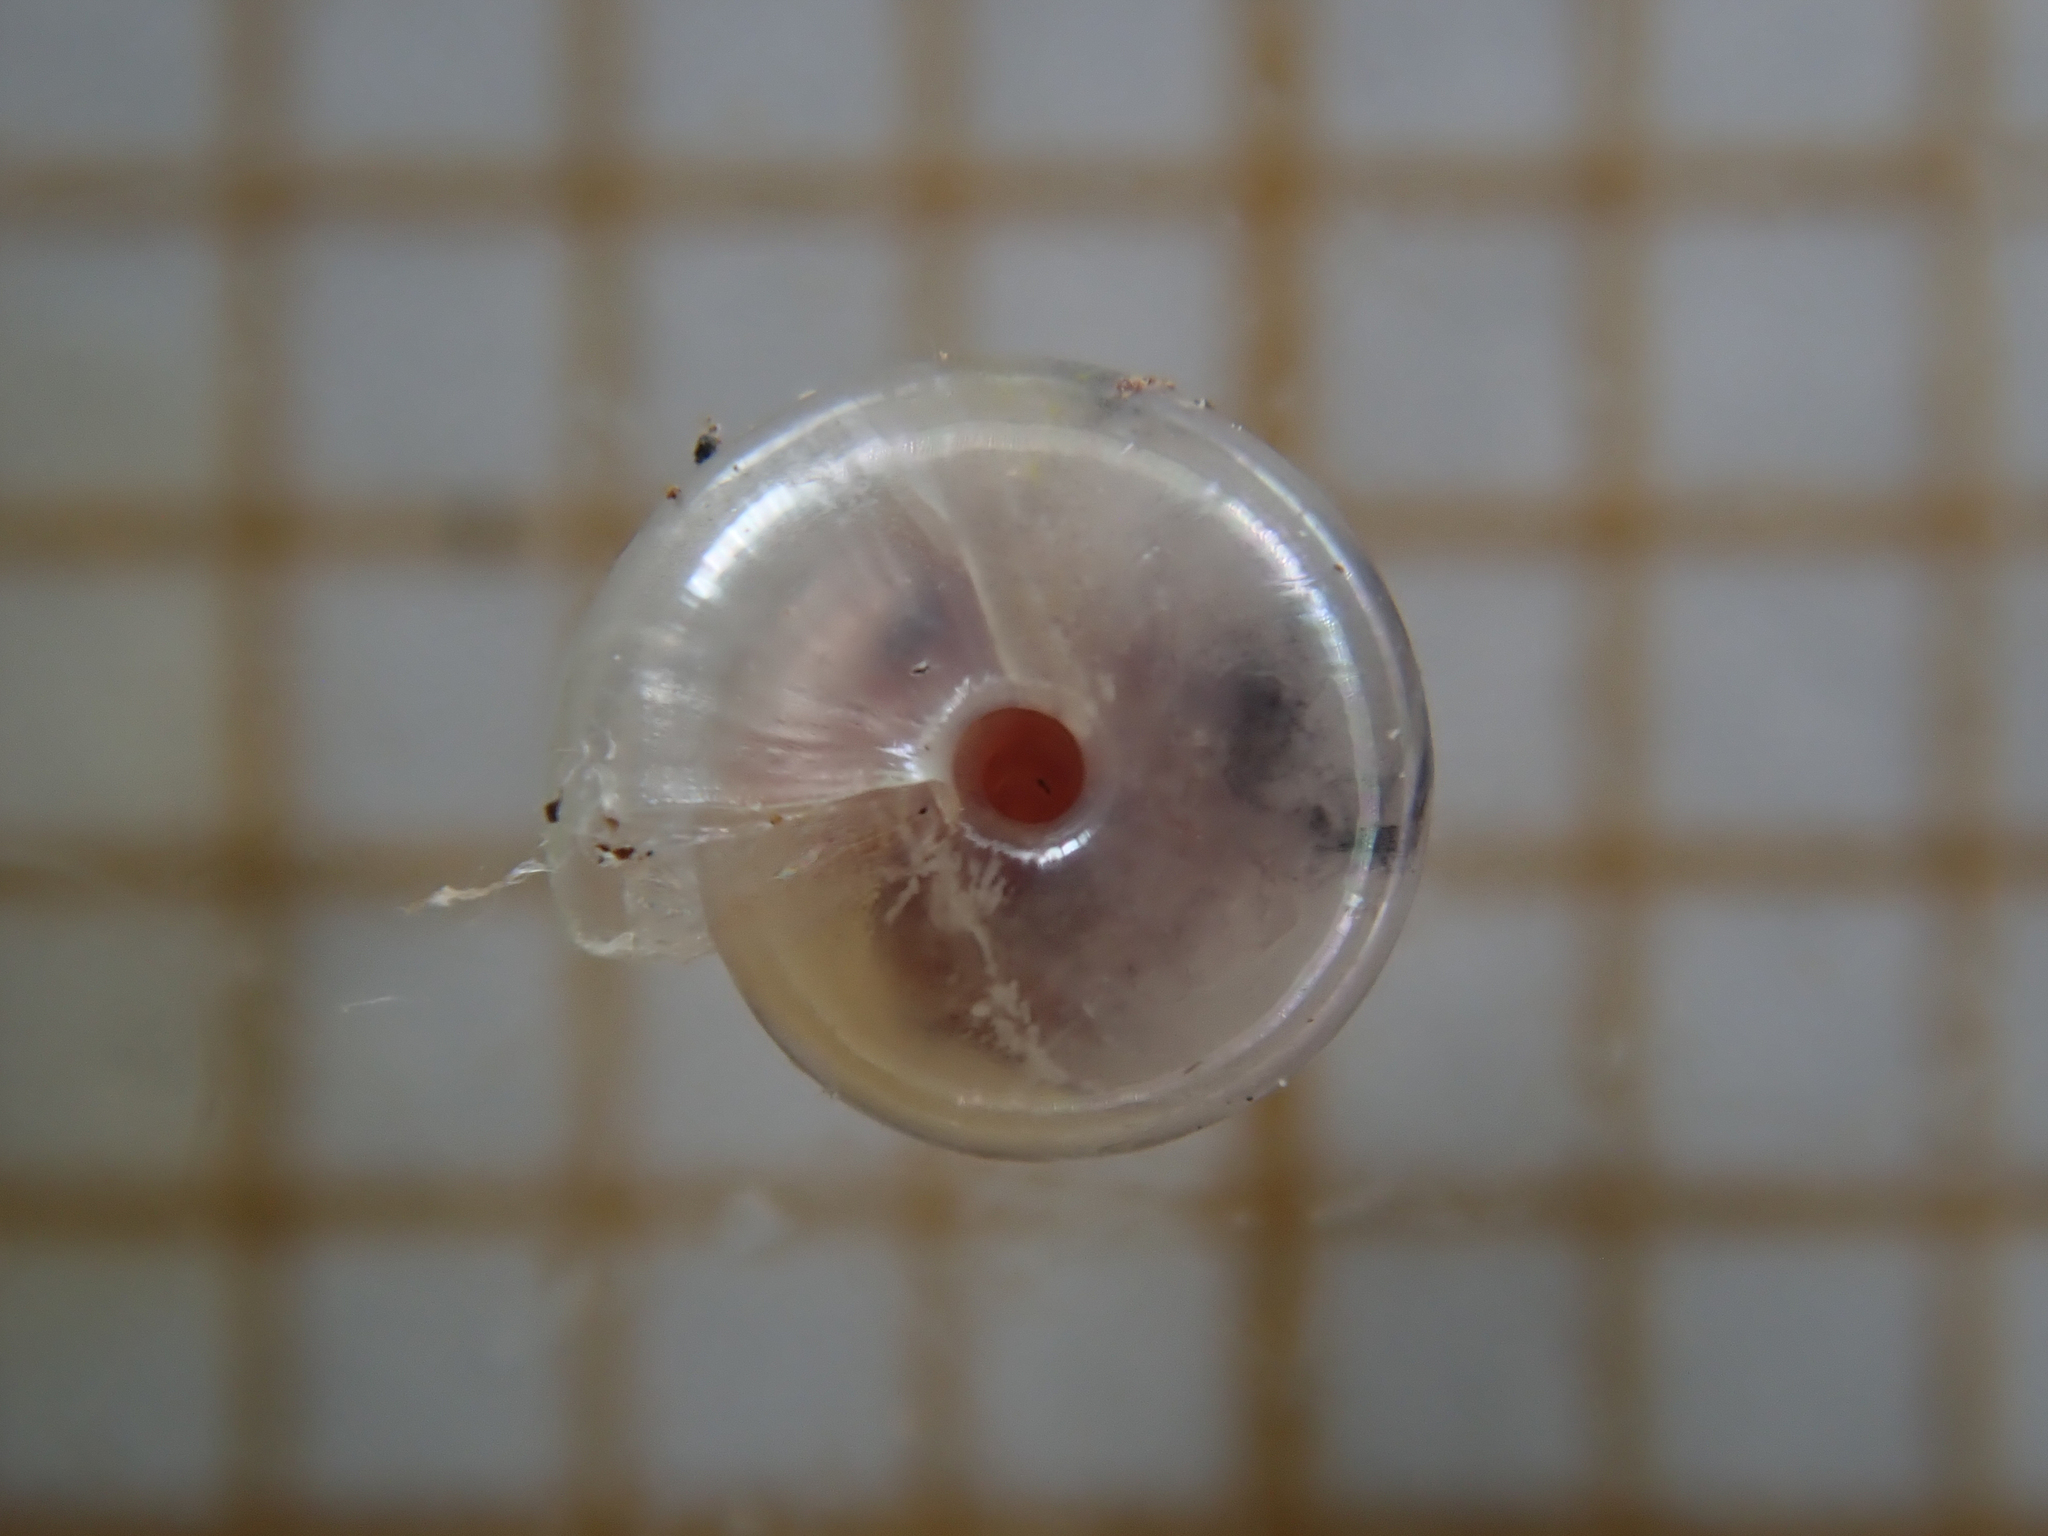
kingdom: Animalia
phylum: Mollusca
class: Gastropoda
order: Stylommatophora
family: Pristilomatidae
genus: Vitrea
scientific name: Vitrea contracta
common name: Milky crystal snail
